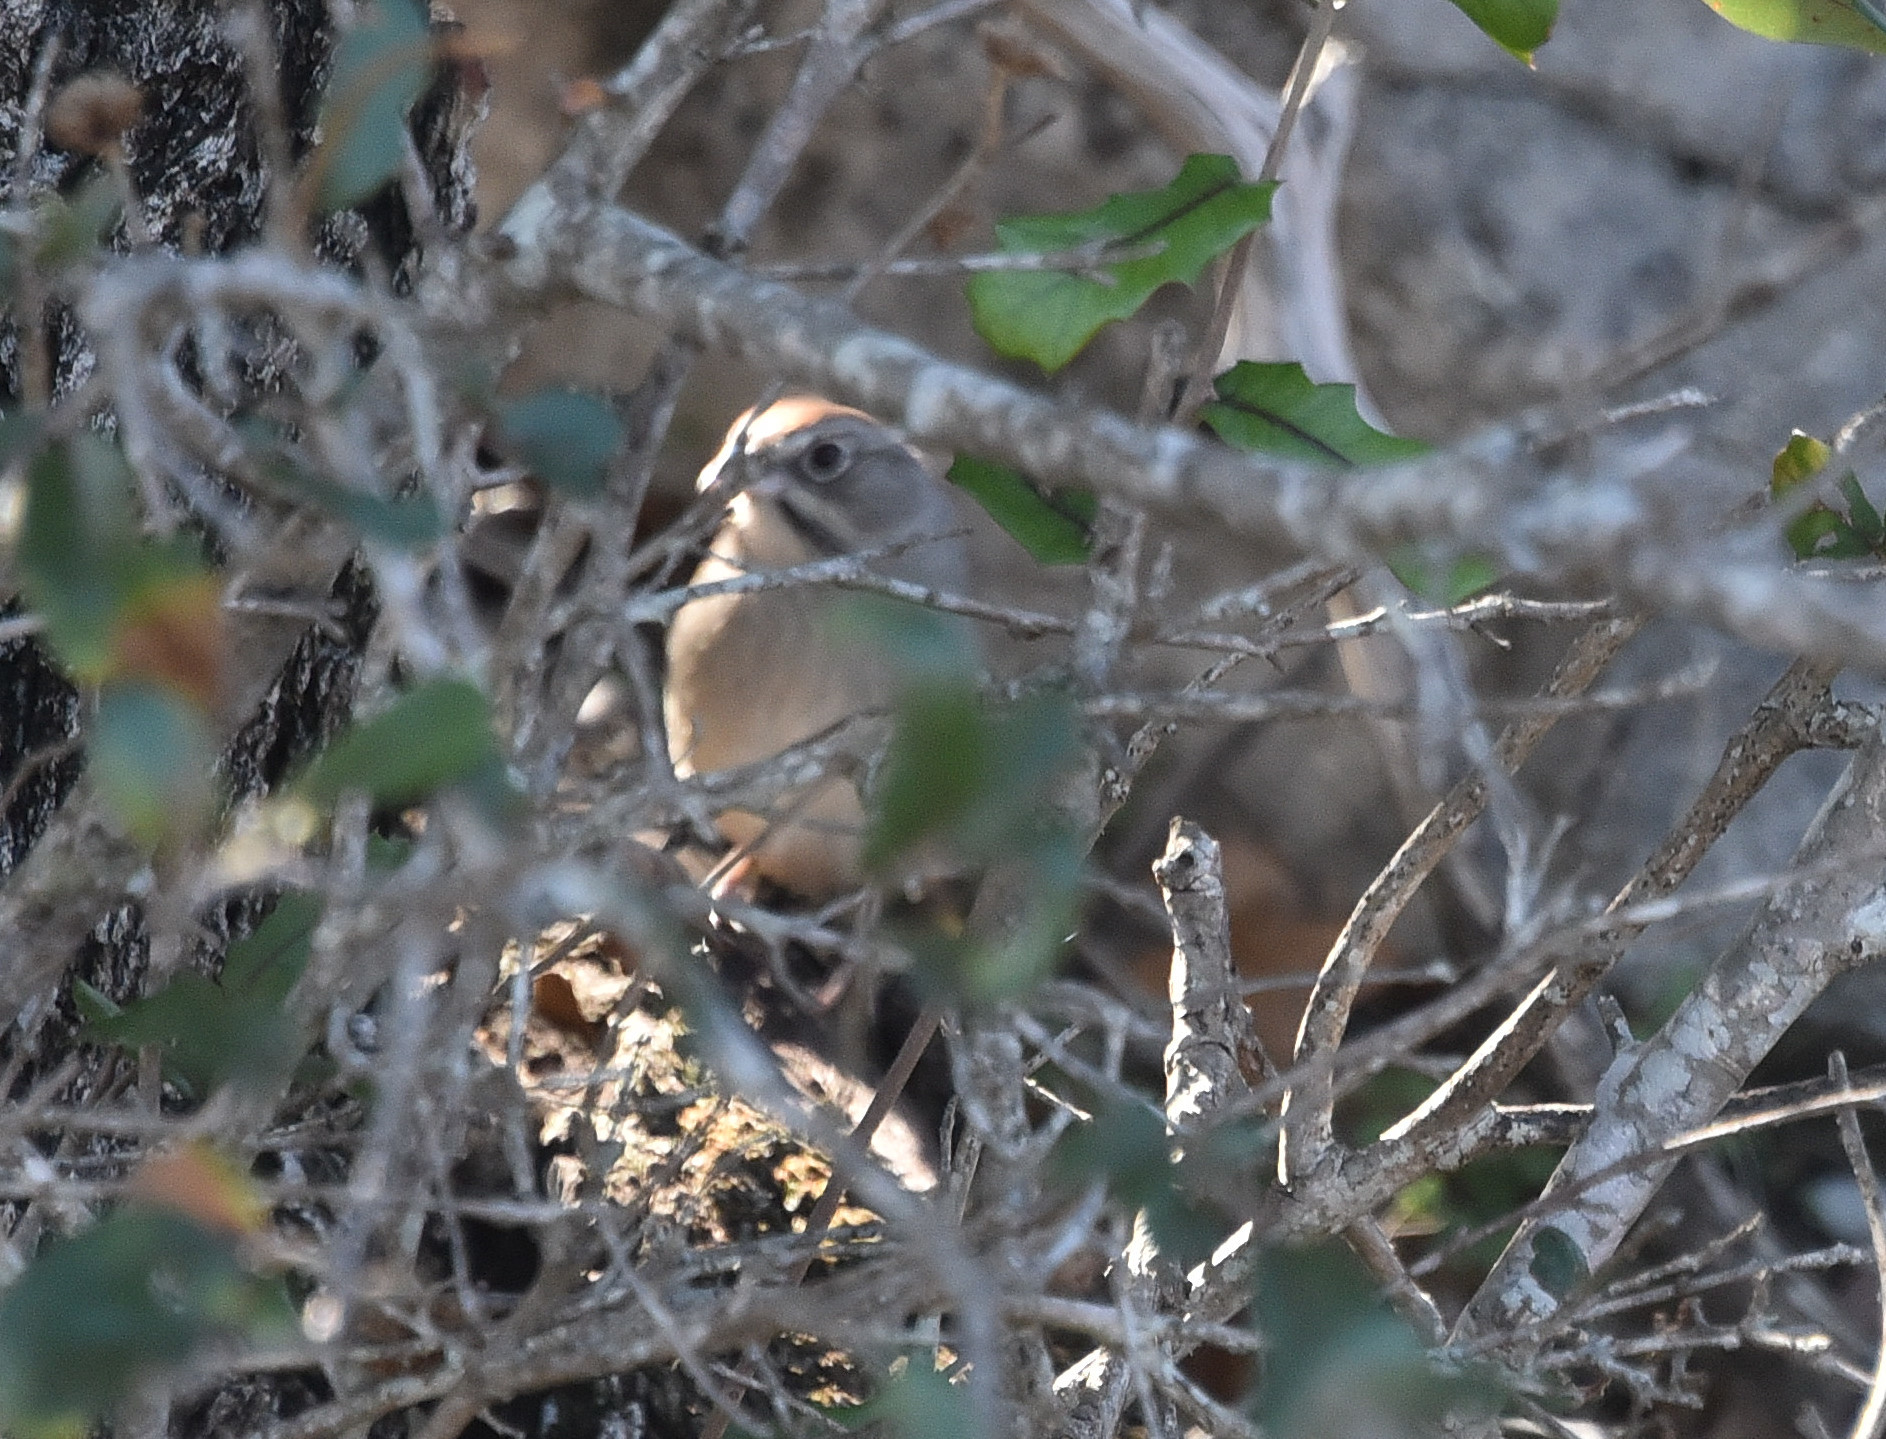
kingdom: Animalia
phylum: Chordata
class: Aves
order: Passeriformes
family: Passerellidae
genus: Aimophila
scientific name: Aimophila ruficeps
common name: Rufous-crowned sparrow
